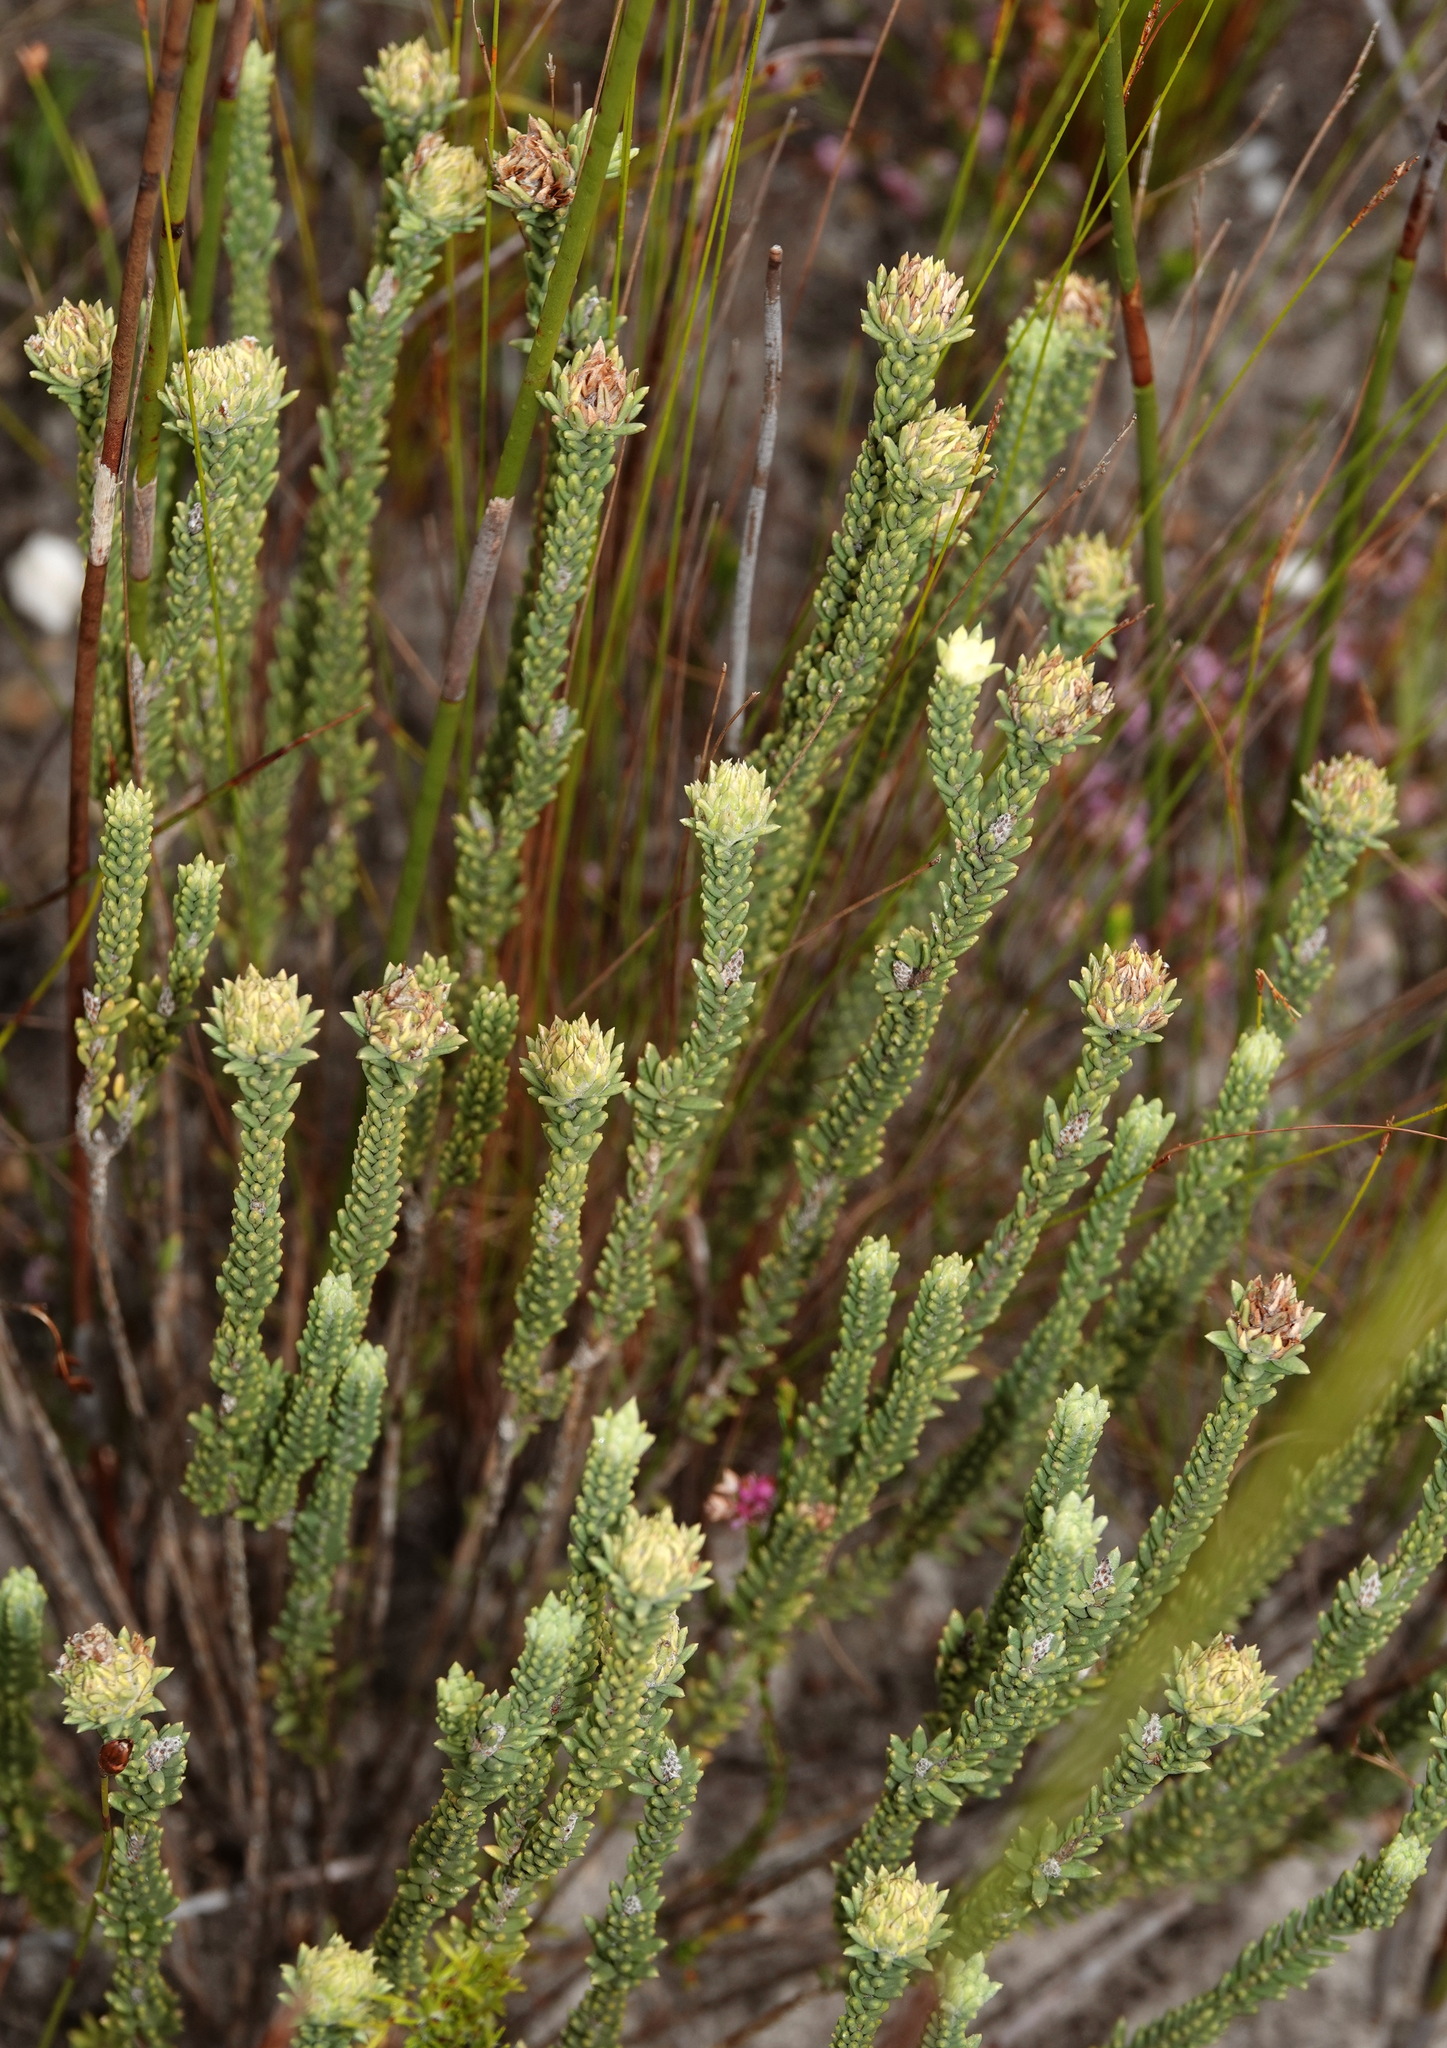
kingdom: Plantae
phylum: Tracheophyta
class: Magnoliopsida
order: Lamiales
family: Stilbaceae
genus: Campylostachys
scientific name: Campylostachys cernua
